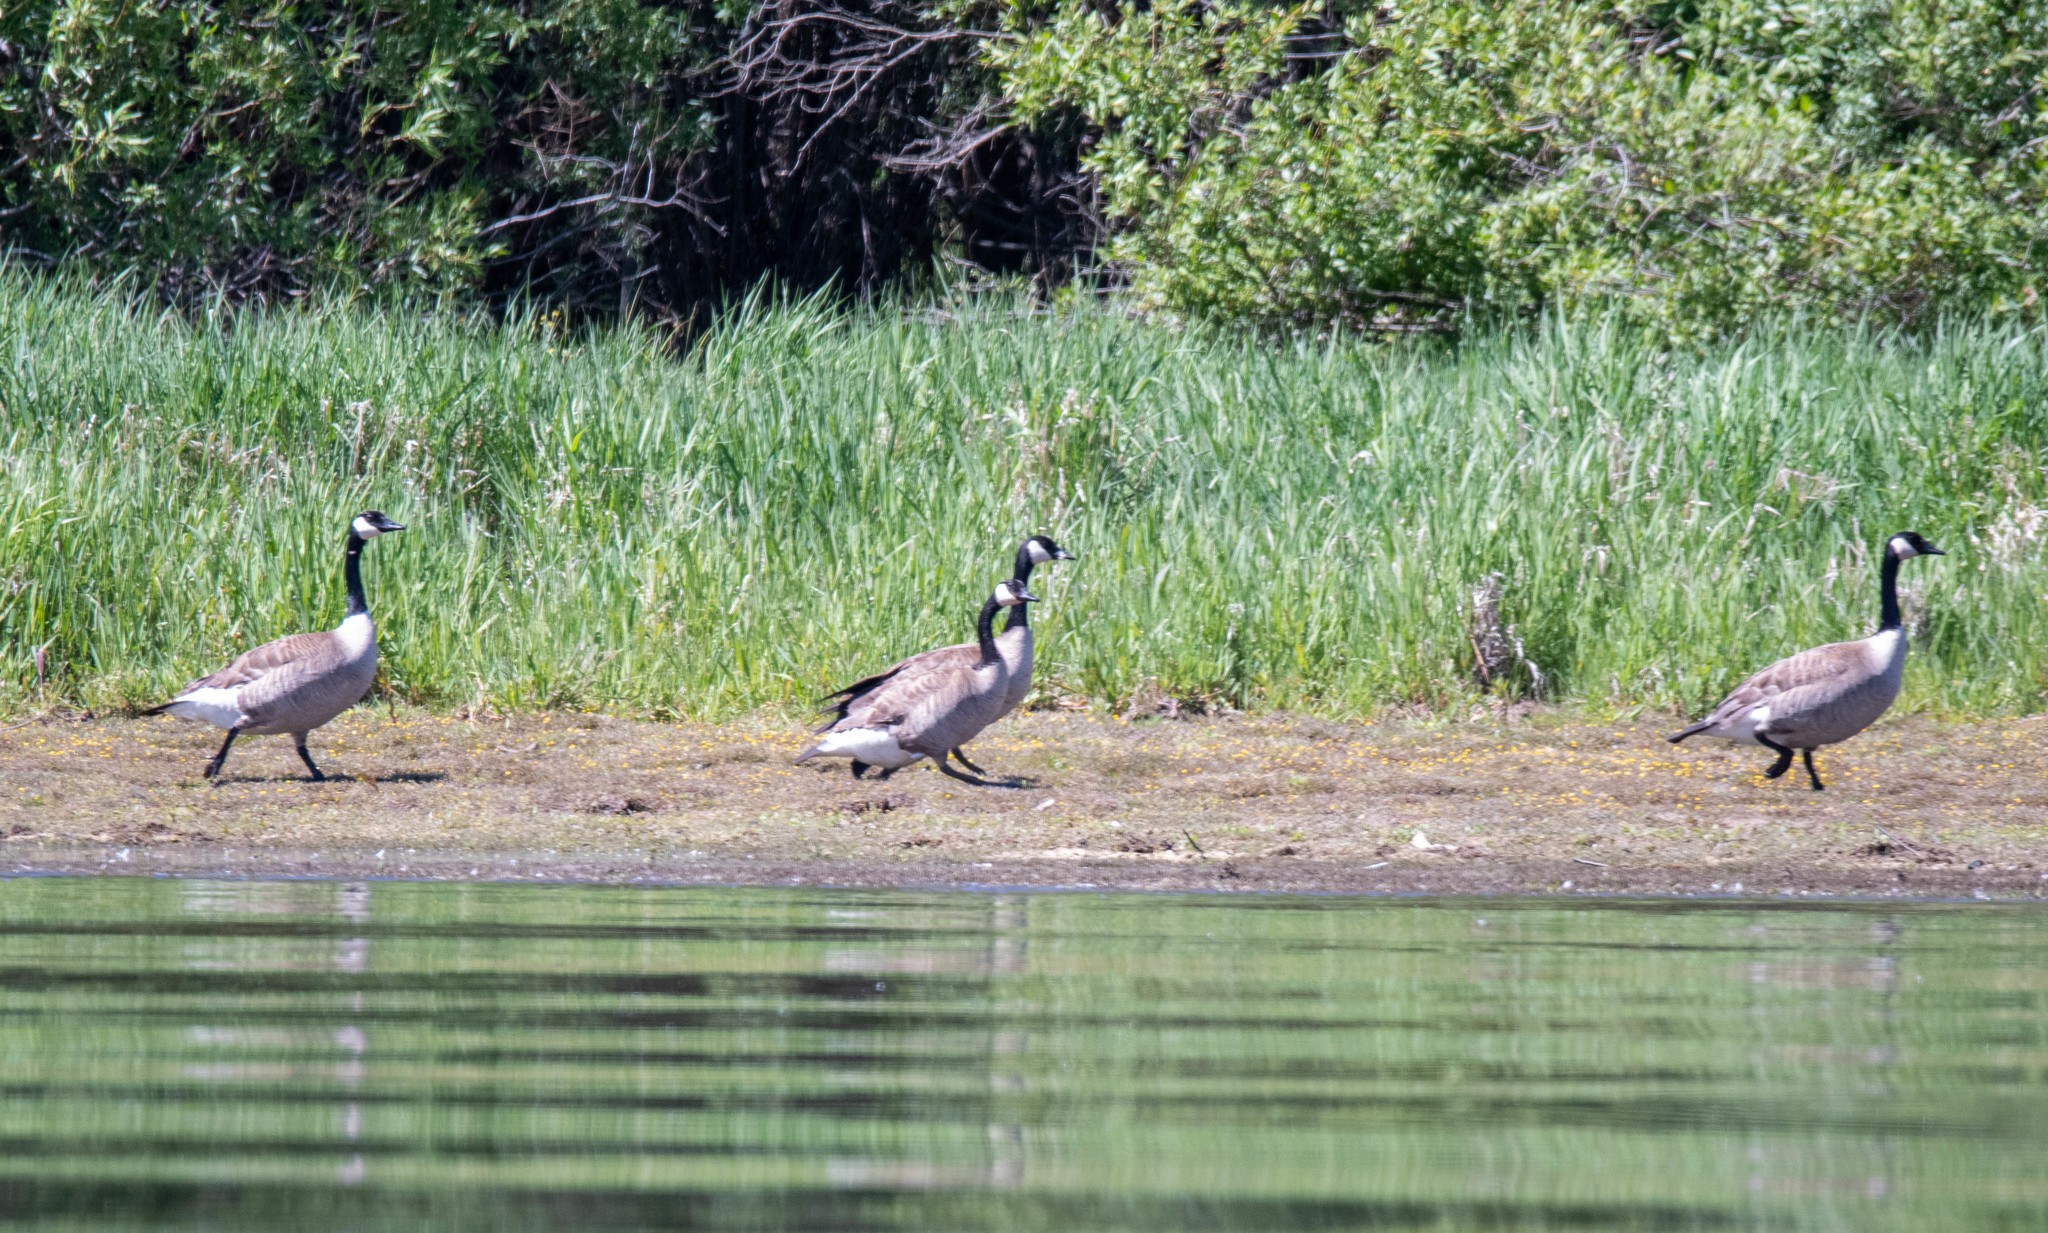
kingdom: Animalia
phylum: Chordata
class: Aves
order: Anseriformes
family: Anatidae
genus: Branta
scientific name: Branta canadensis
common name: Canada goose
